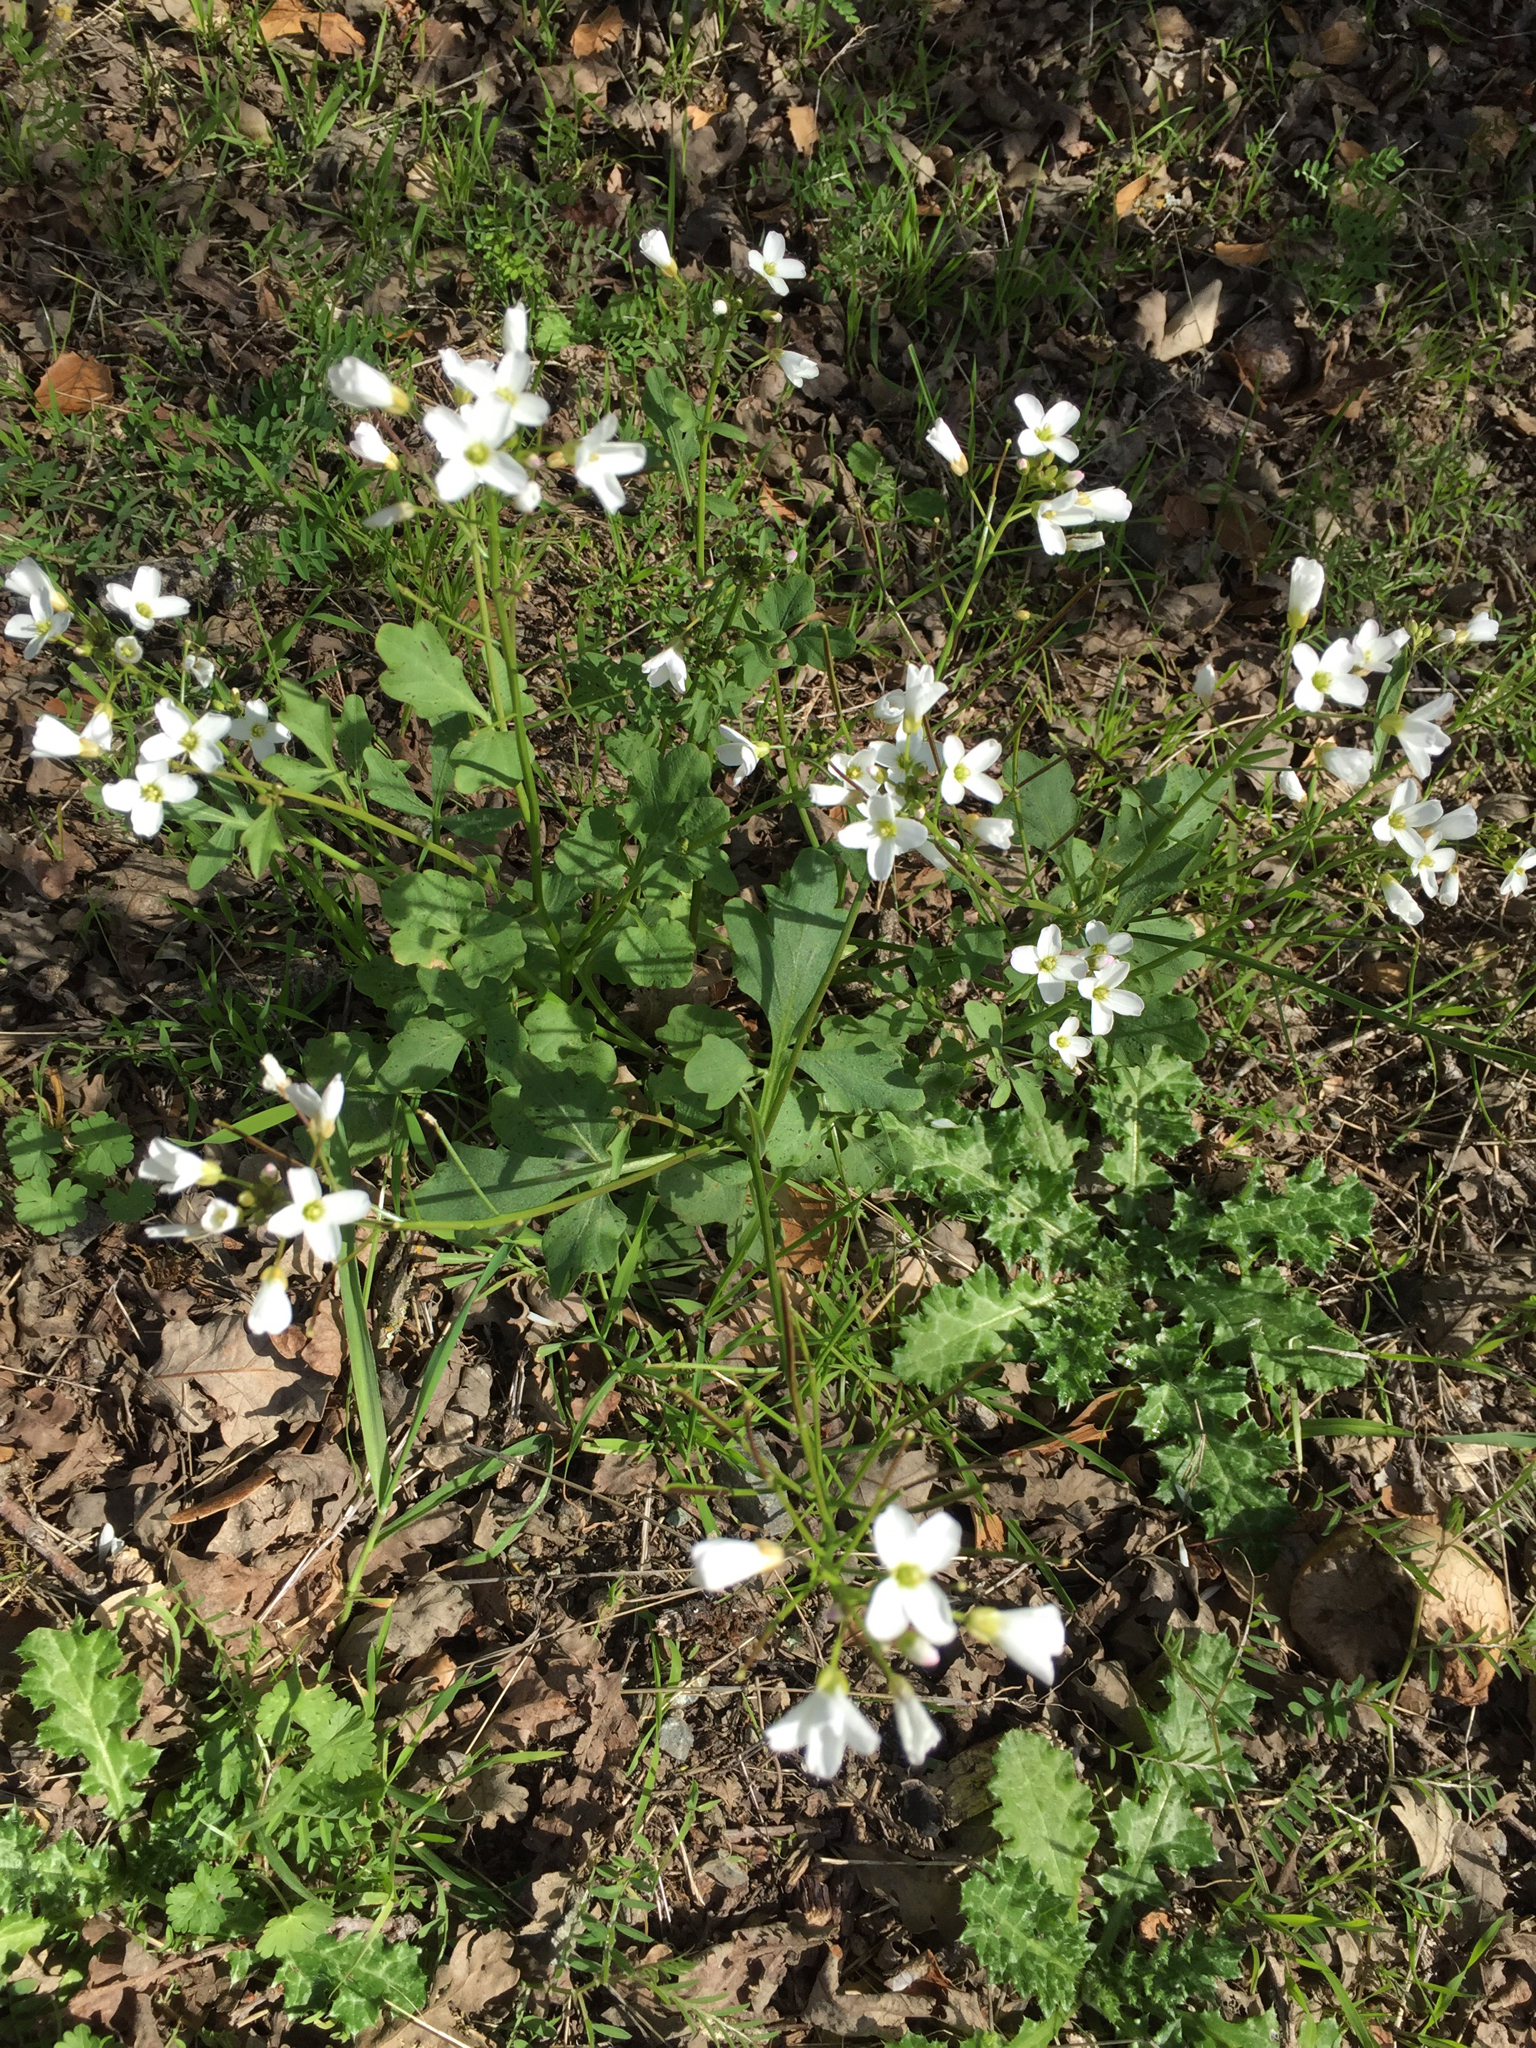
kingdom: Plantae
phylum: Tracheophyta
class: Magnoliopsida
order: Brassicales
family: Brassicaceae
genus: Cardamine
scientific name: Cardamine californica
